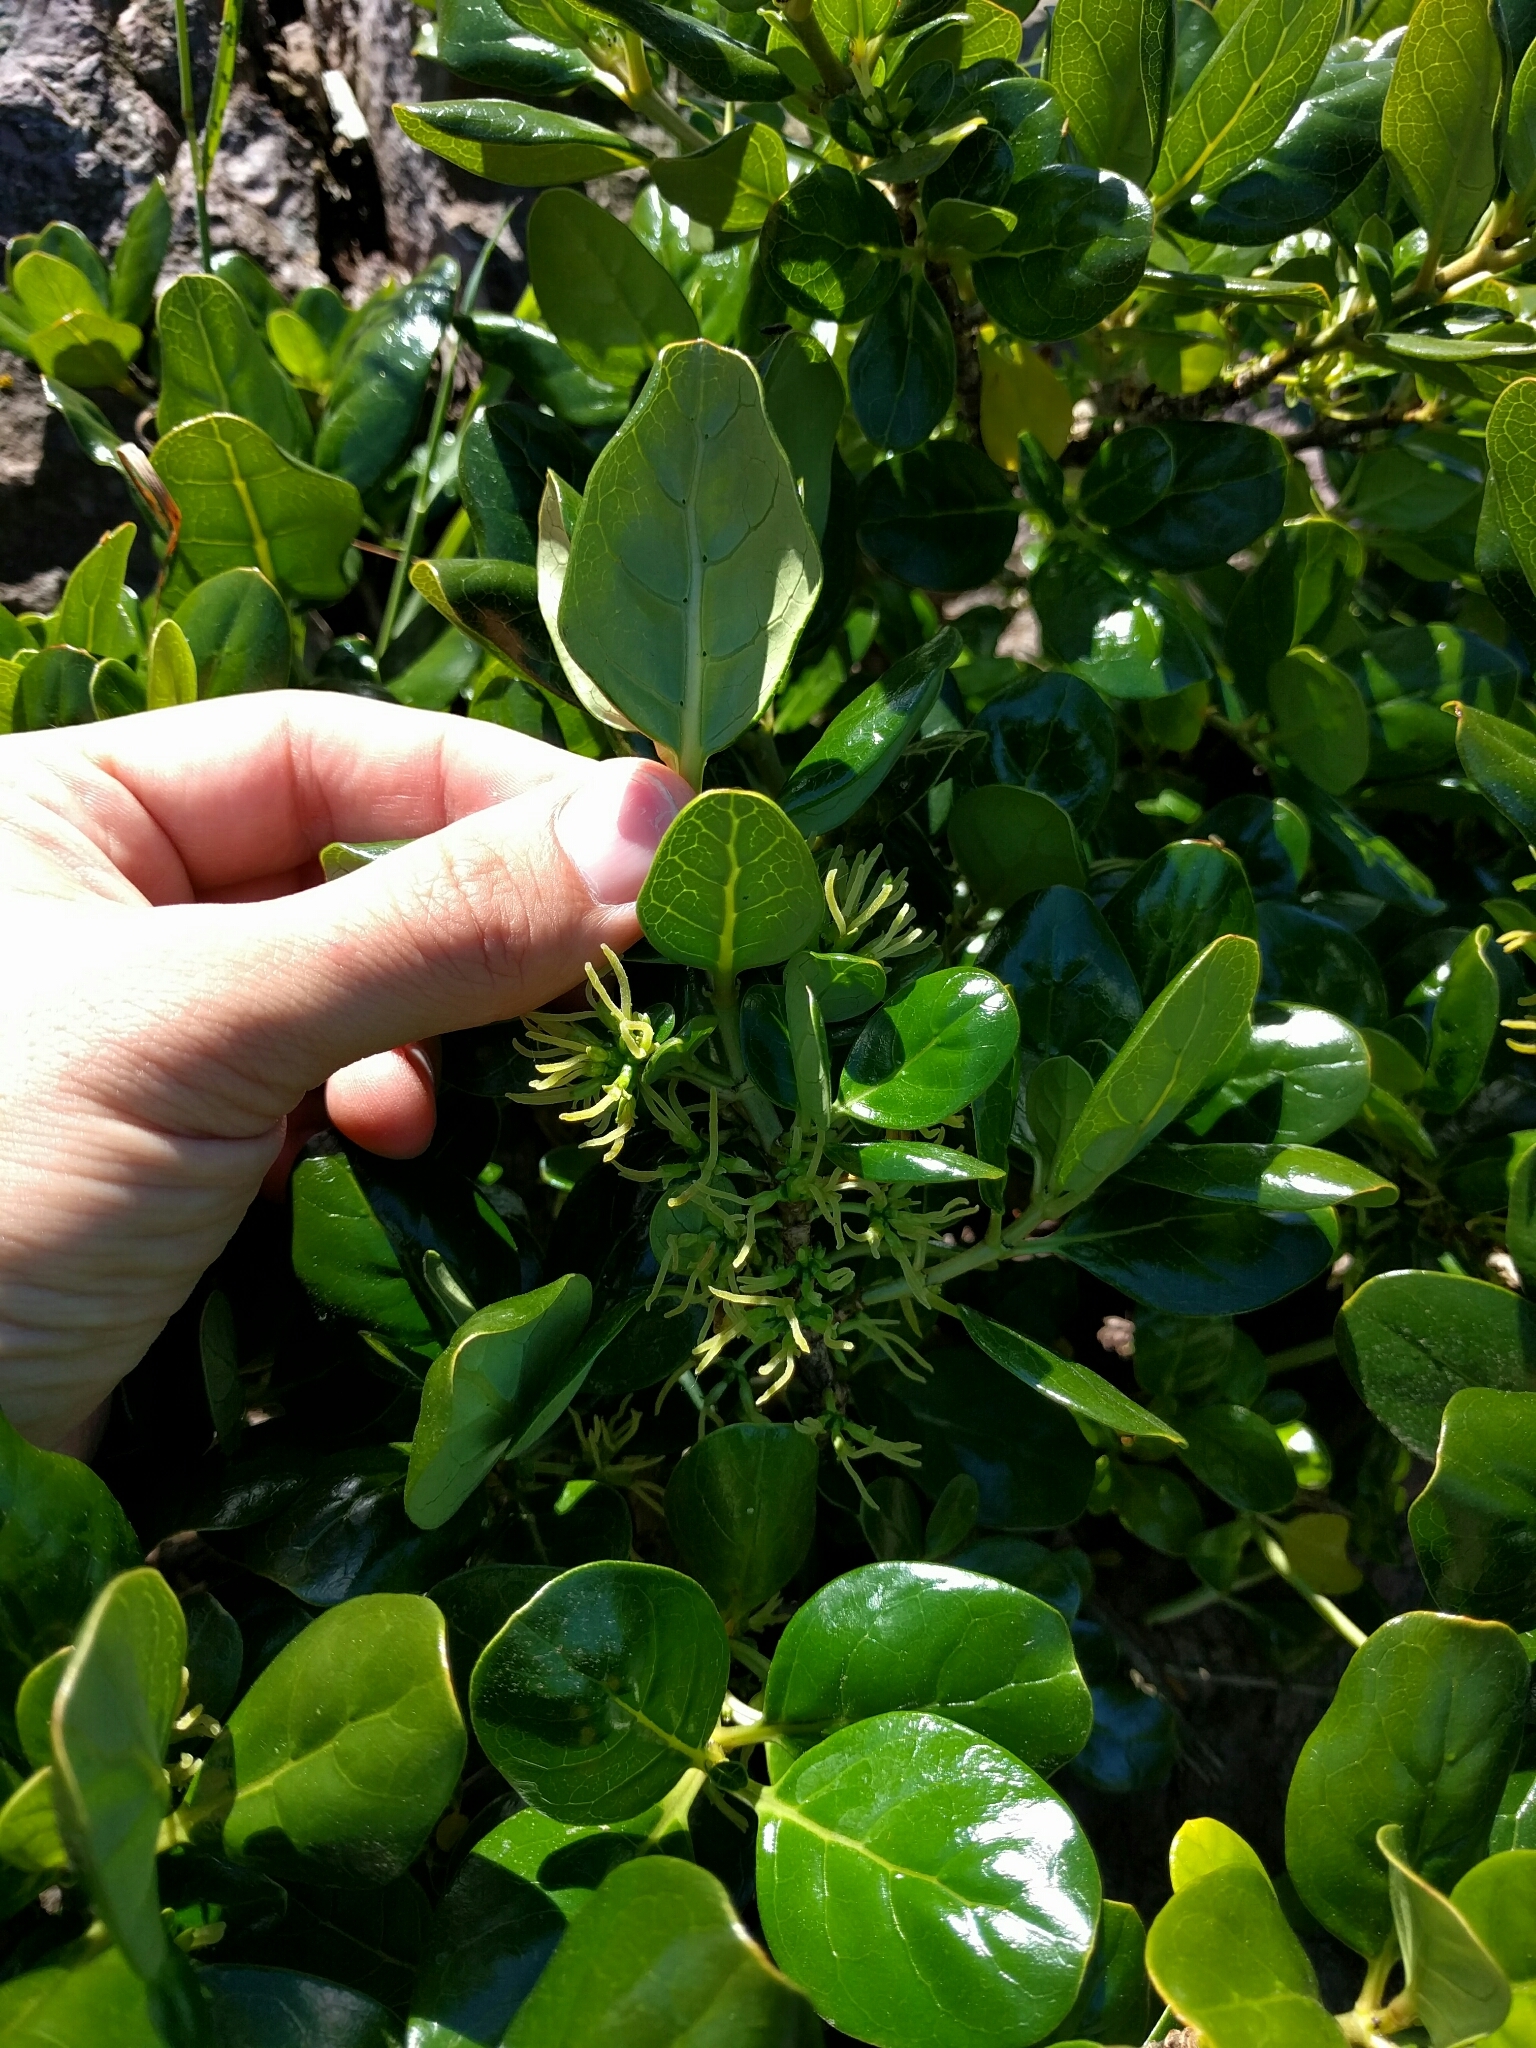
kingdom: Plantae
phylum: Tracheophyta
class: Magnoliopsida
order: Gentianales
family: Rubiaceae
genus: Coprosma
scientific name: Coprosma repens
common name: Tree bedstraw
